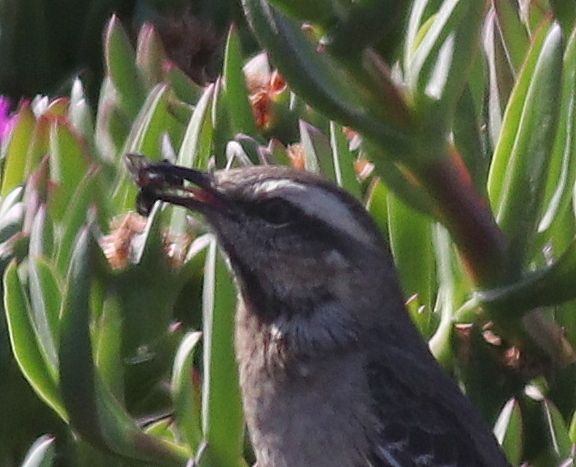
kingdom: Animalia
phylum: Chordata
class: Aves
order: Passeriformes
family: Mimidae
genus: Mimus
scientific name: Mimus thenca
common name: Chilean mockingbird
